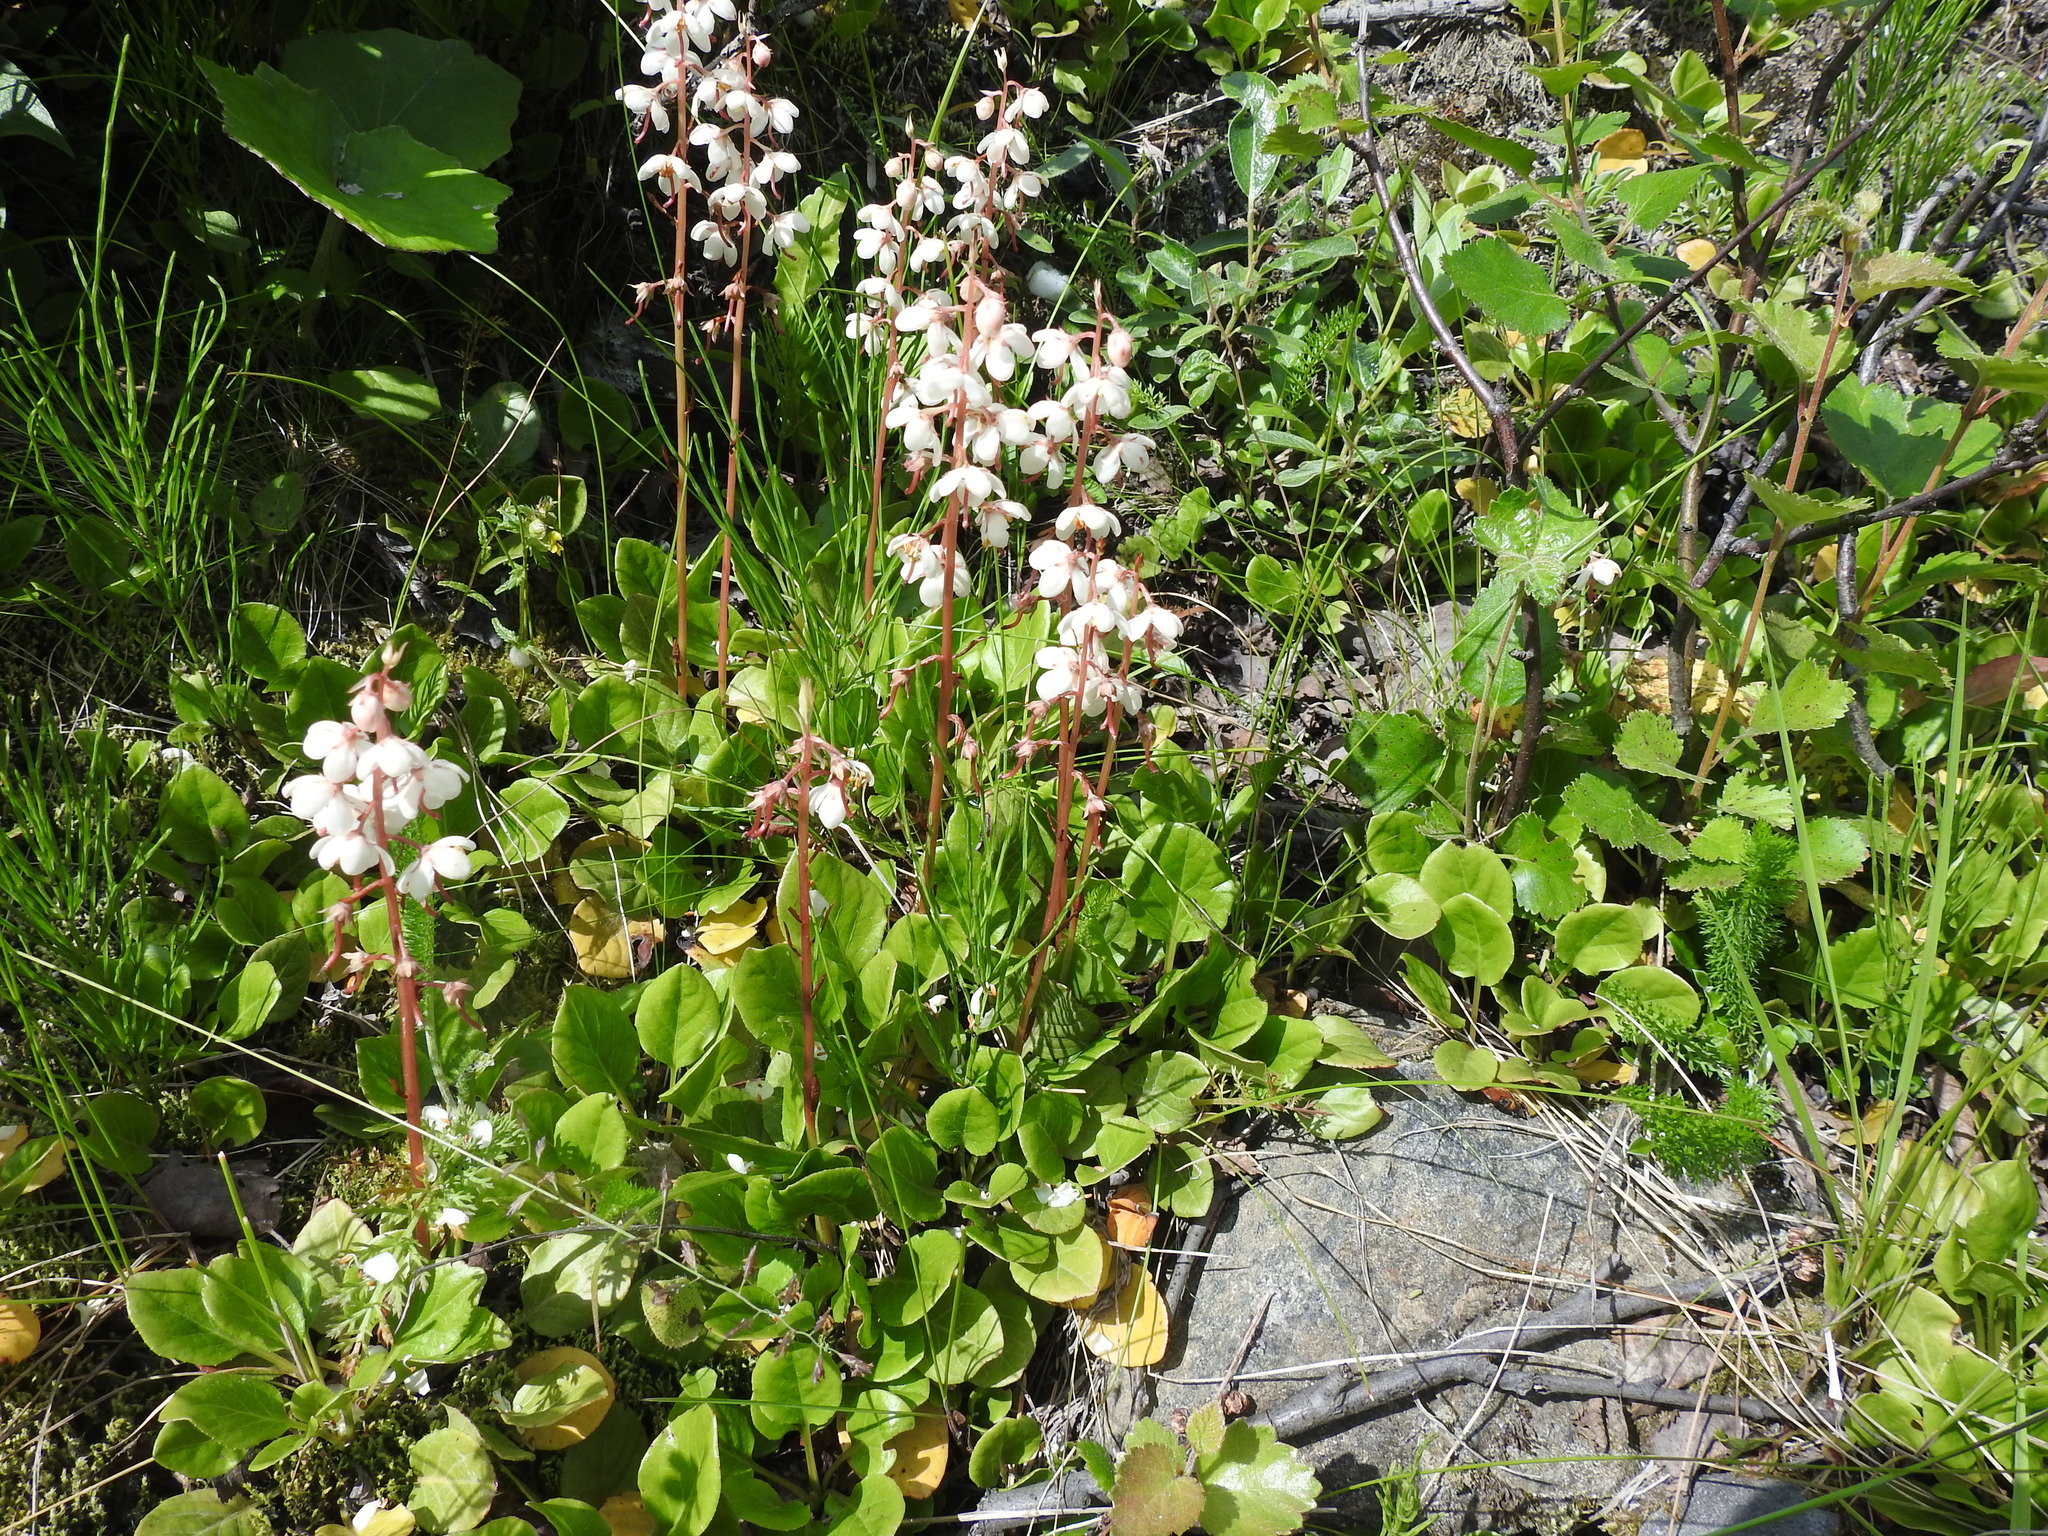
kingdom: Plantae
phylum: Tracheophyta
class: Magnoliopsida
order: Ericales
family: Ericaceae
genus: Pyrola
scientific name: Pyrola rotundifolia
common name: Round-leaved wintergreen
